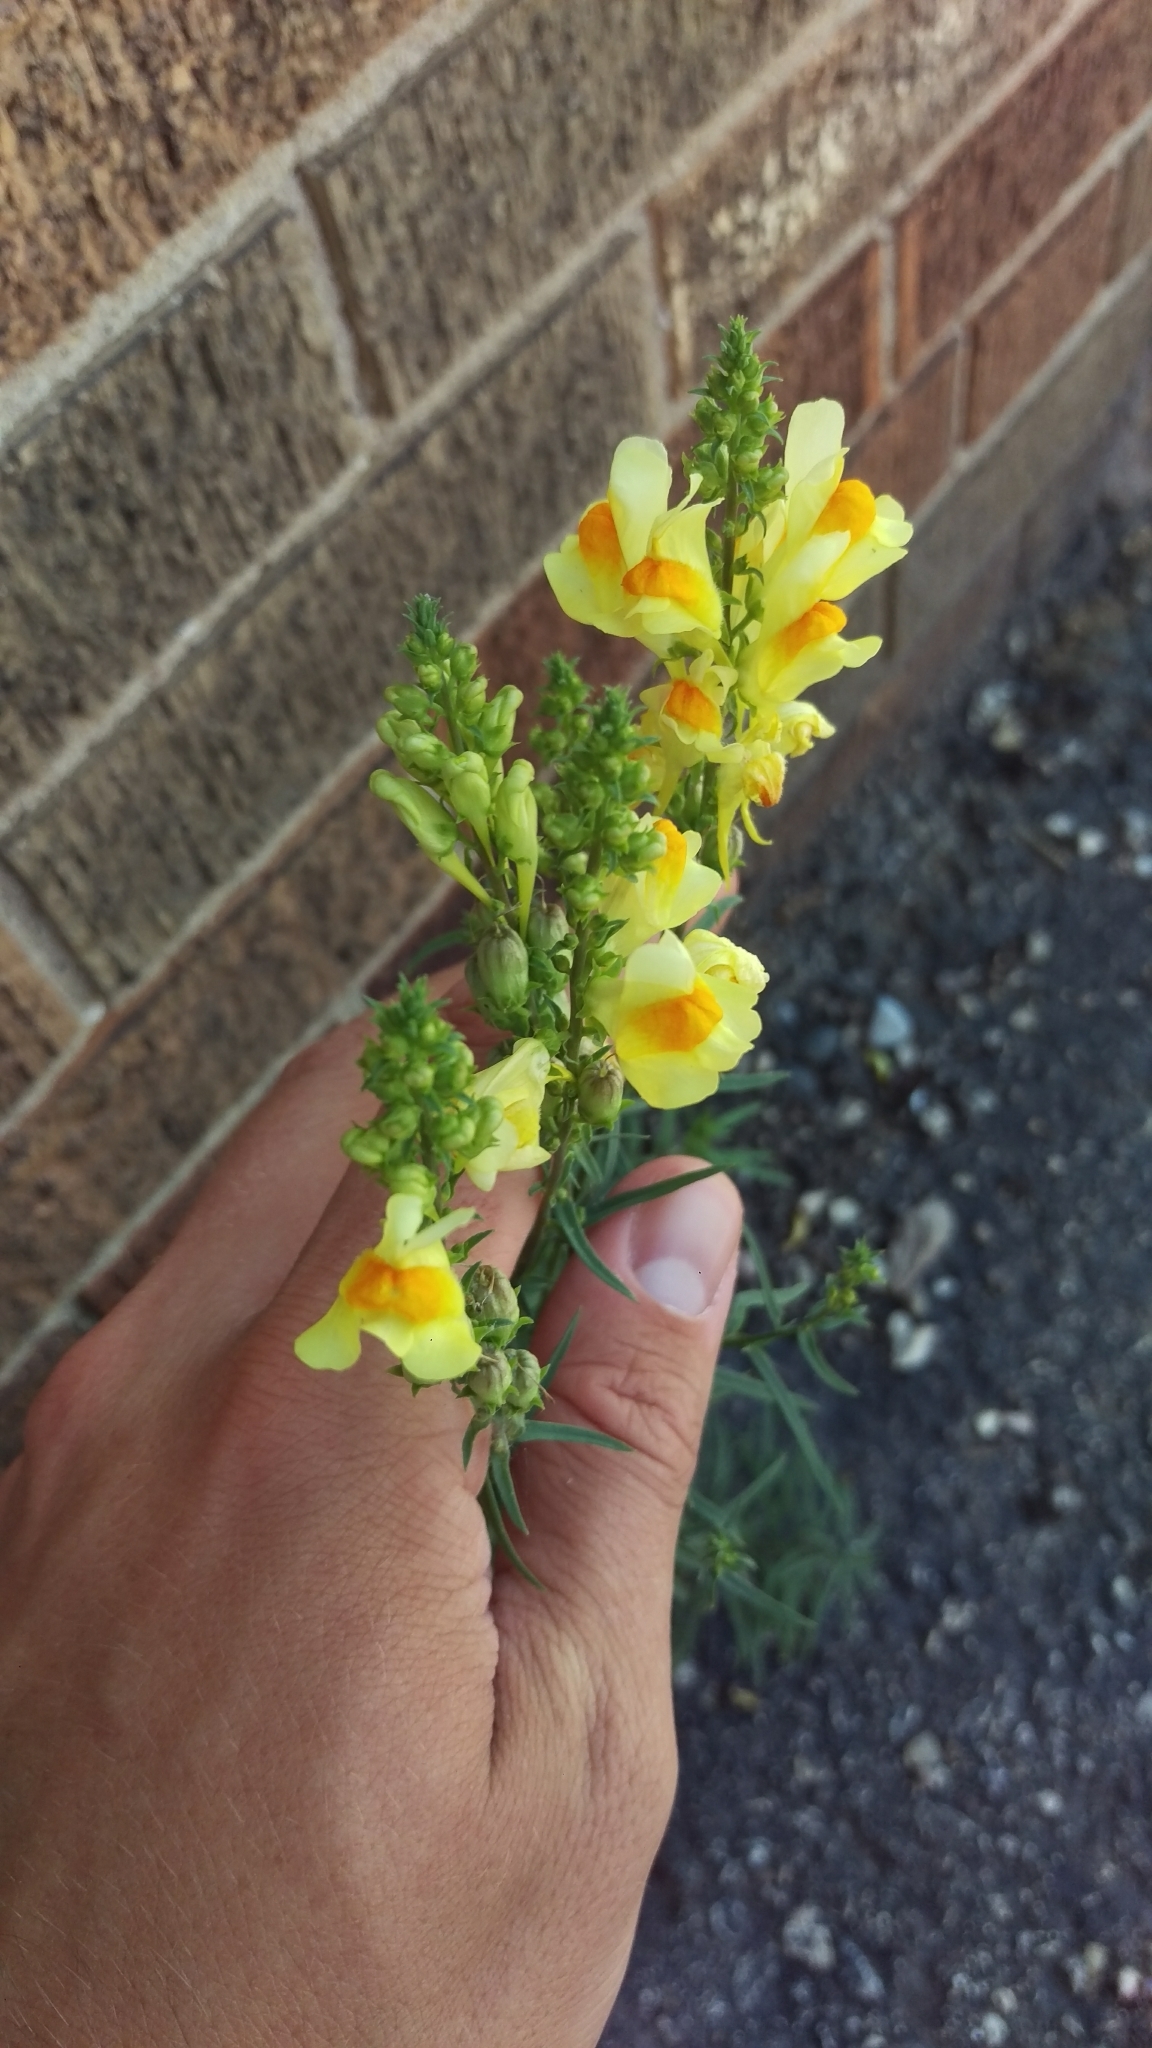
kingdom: Plantae
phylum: Tracheophyta
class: Magnoliopsida
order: Lamiales
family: Plantaginaceae
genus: Linaria
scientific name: Linaria vulgaris
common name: Butter and eggs
